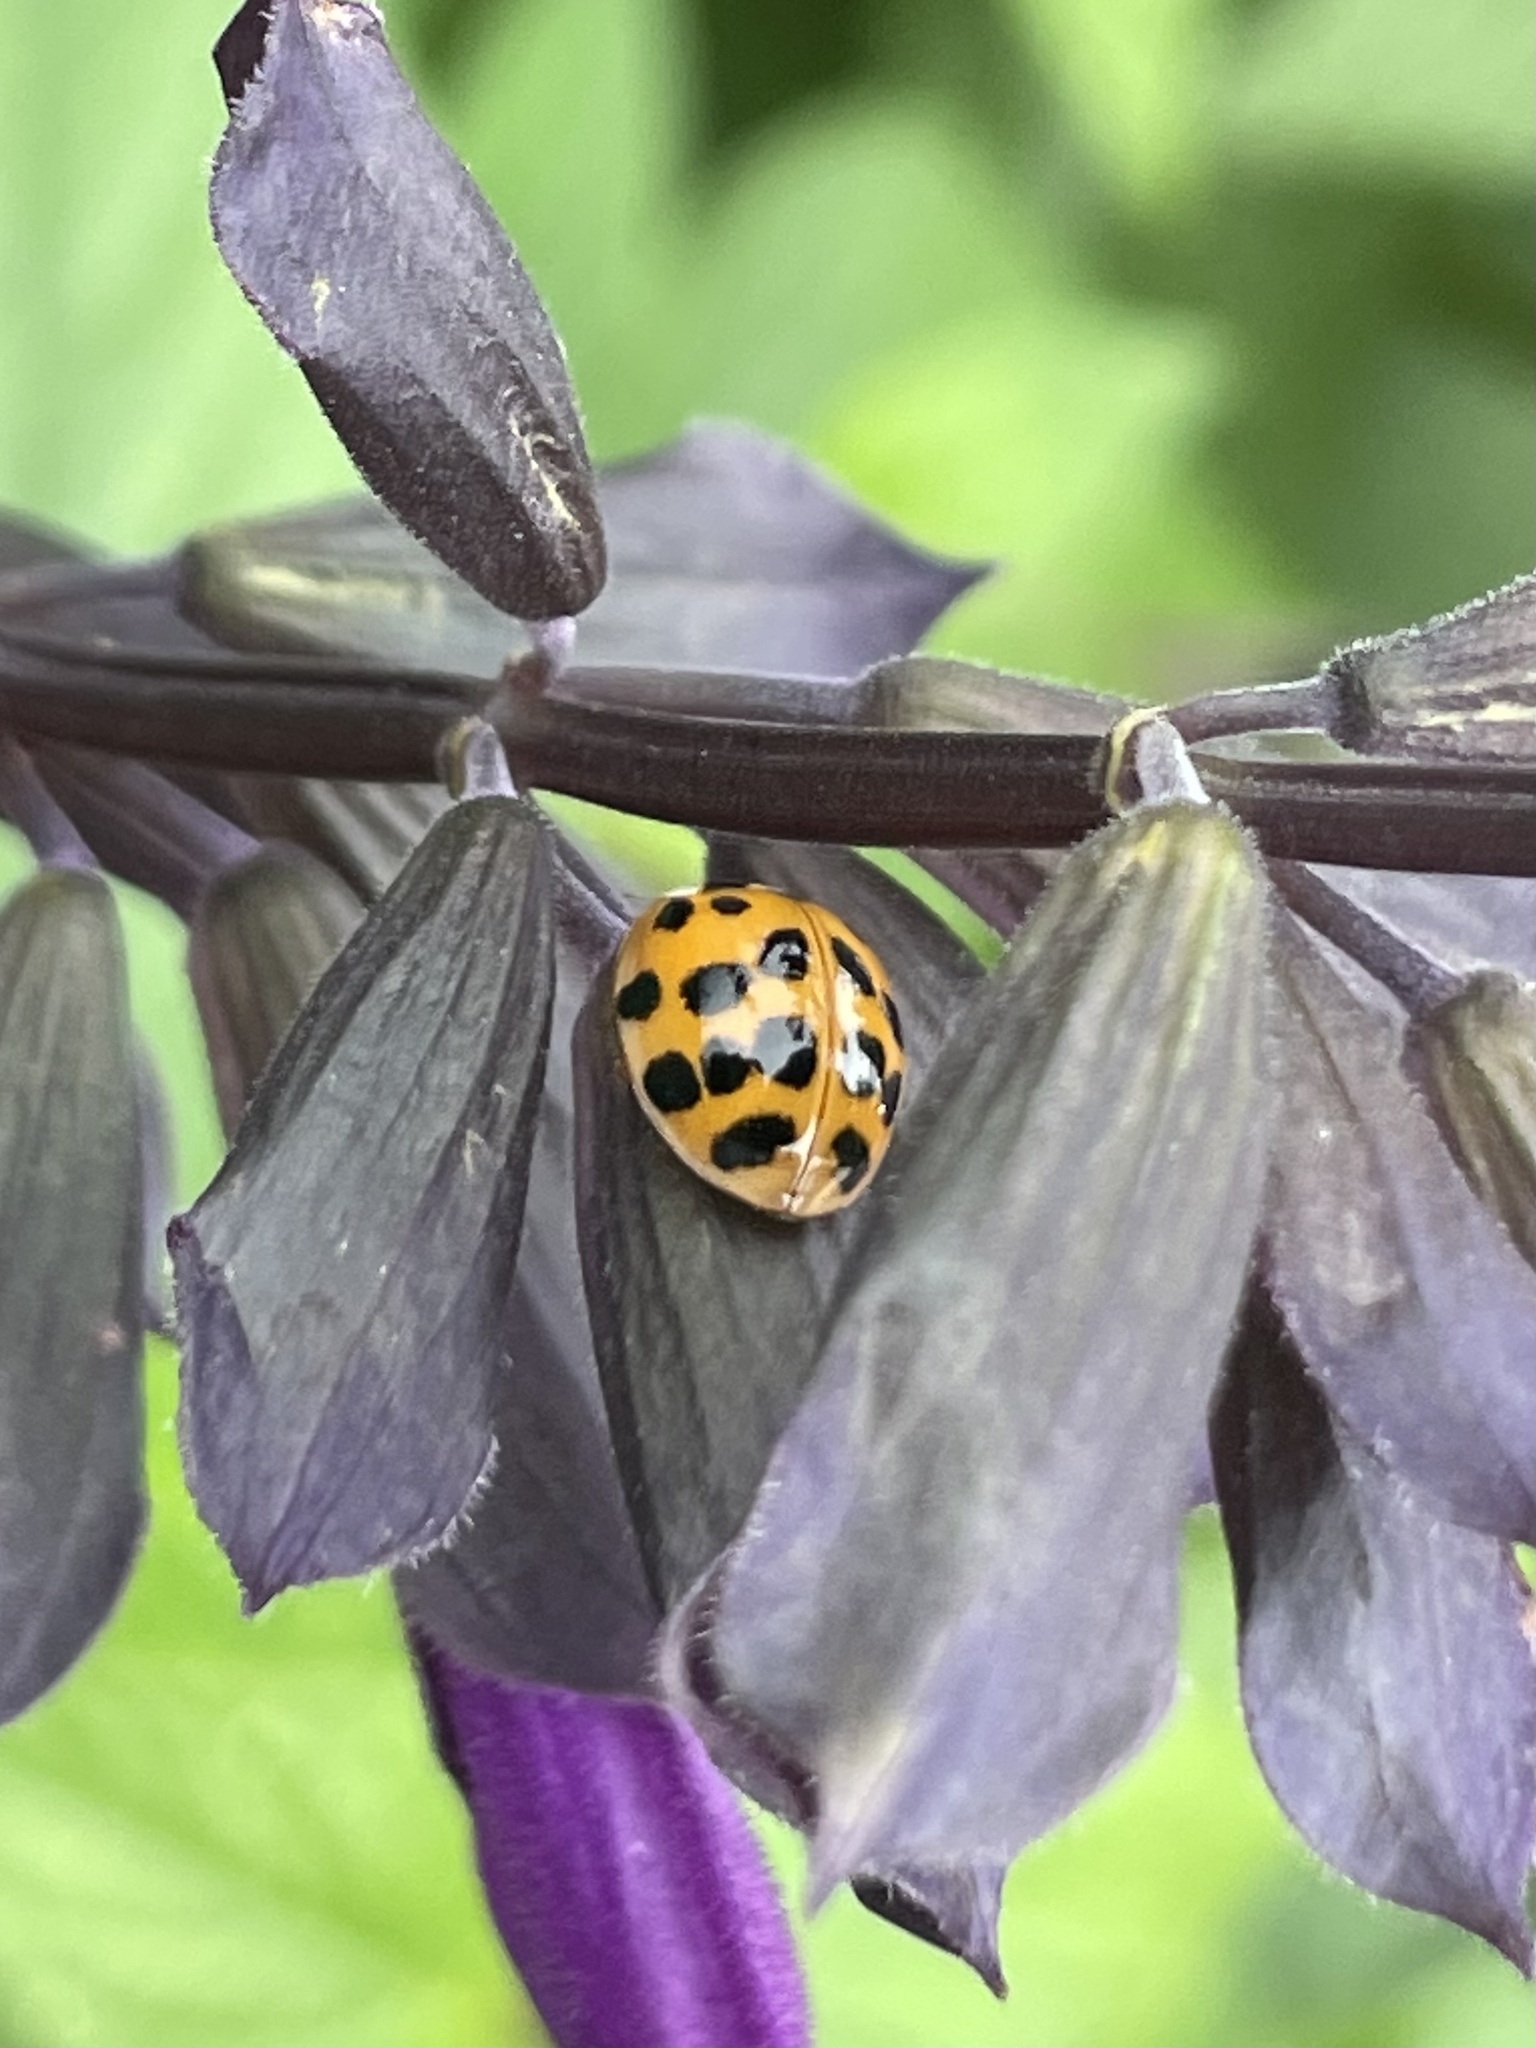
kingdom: Animalia
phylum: Arthropoda
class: Insecta
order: Coleoptera
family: Coccinellidae
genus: Harmonia
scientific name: Harmonia axyridis
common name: Harlequin ladybird
